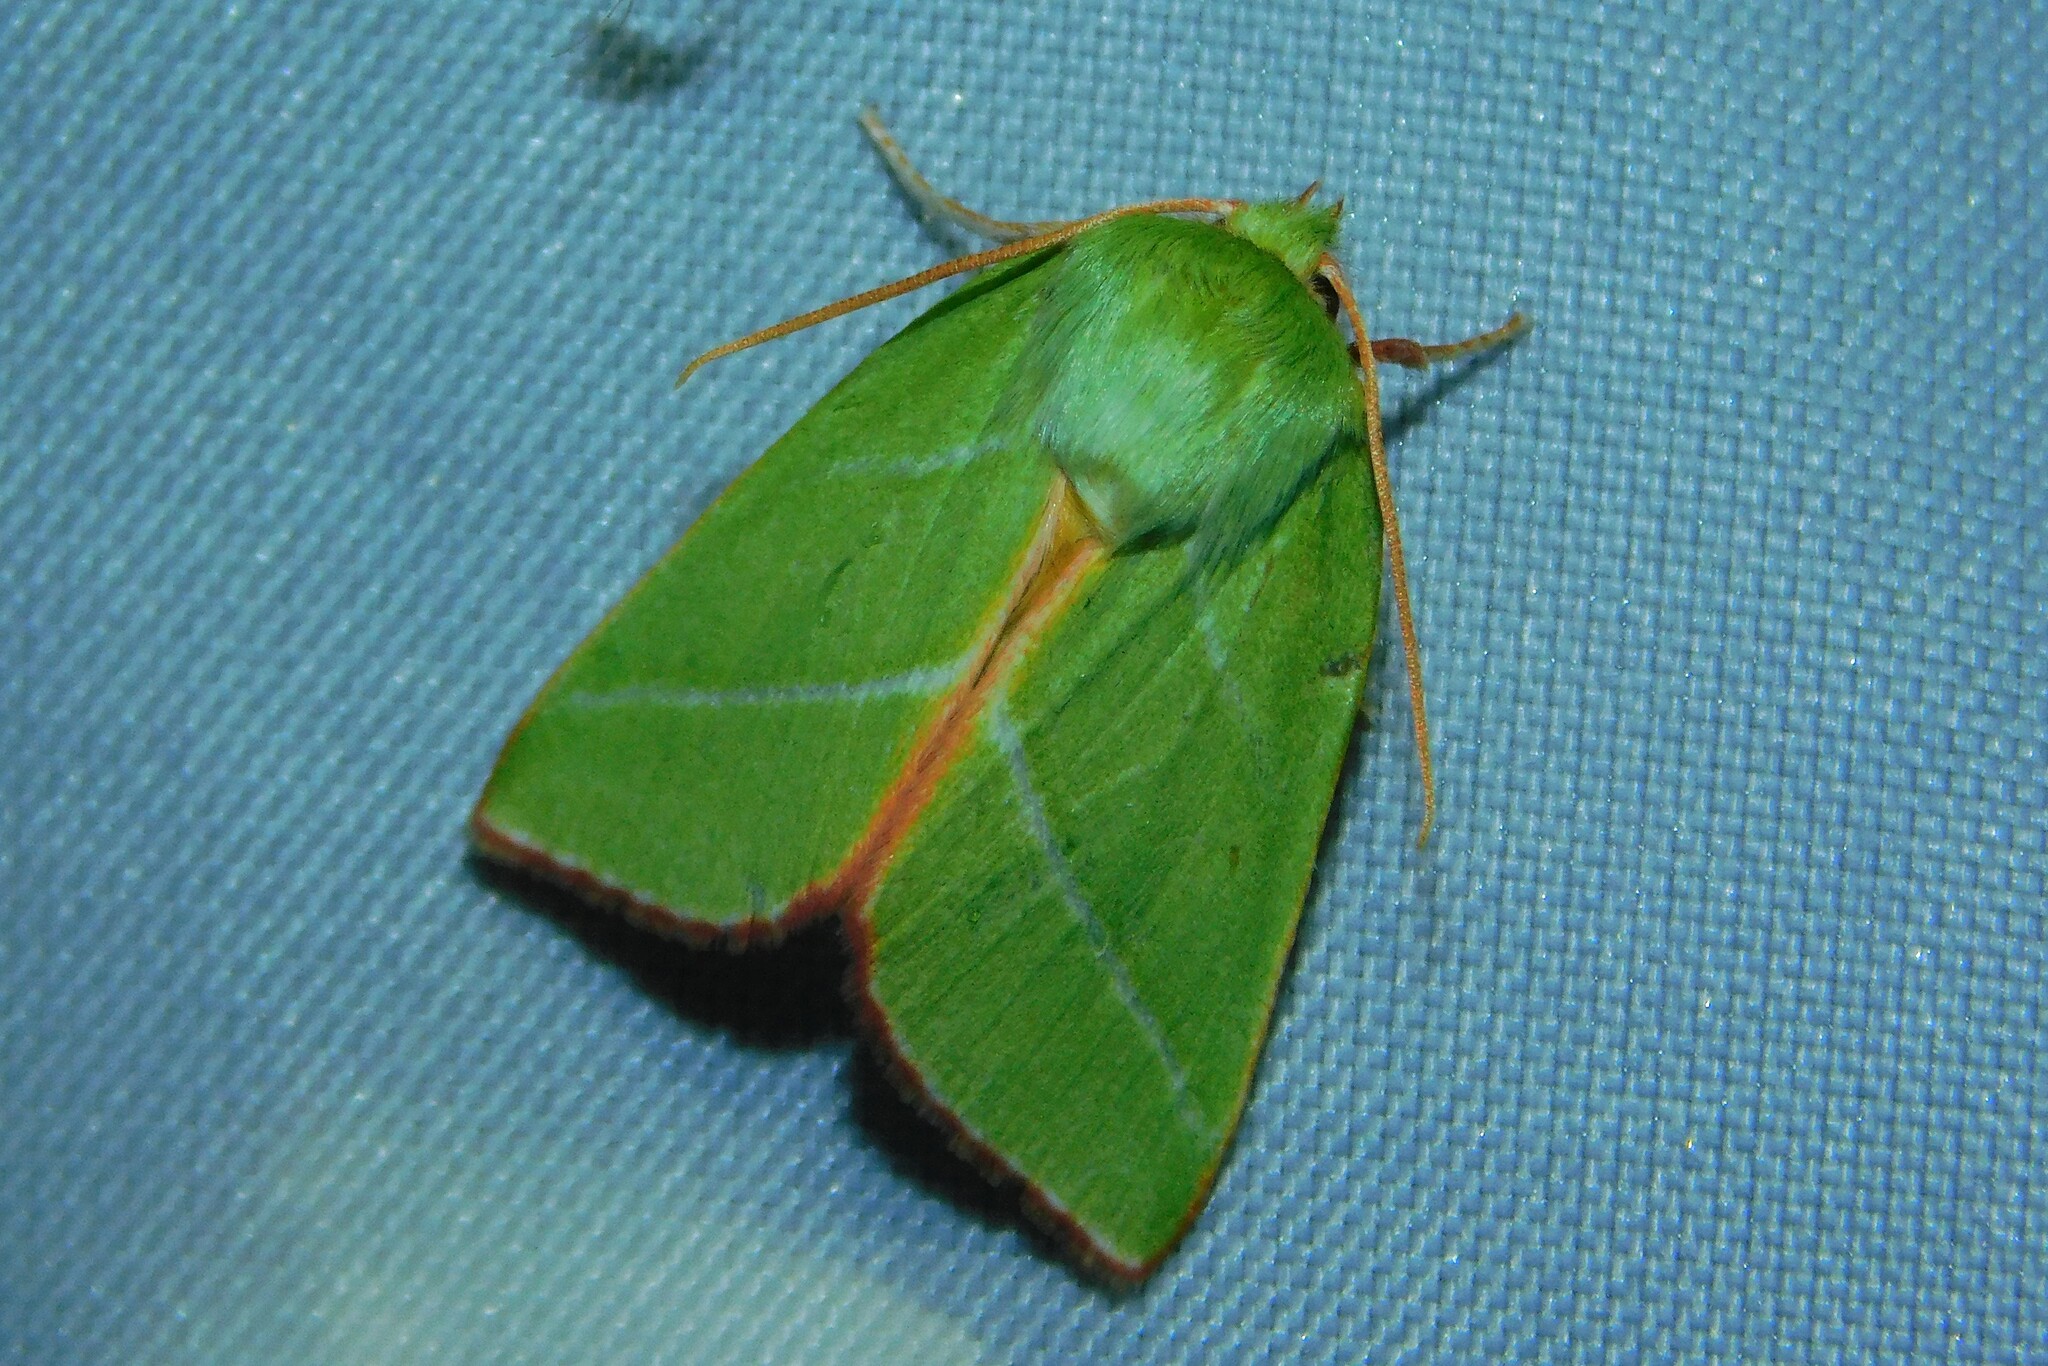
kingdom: Animalia
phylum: Arthropoda
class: Insecta
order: Lepidoptera
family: Nolidae
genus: Pseudoips
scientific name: Pseudoips prasinana
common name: Green silver-lines
